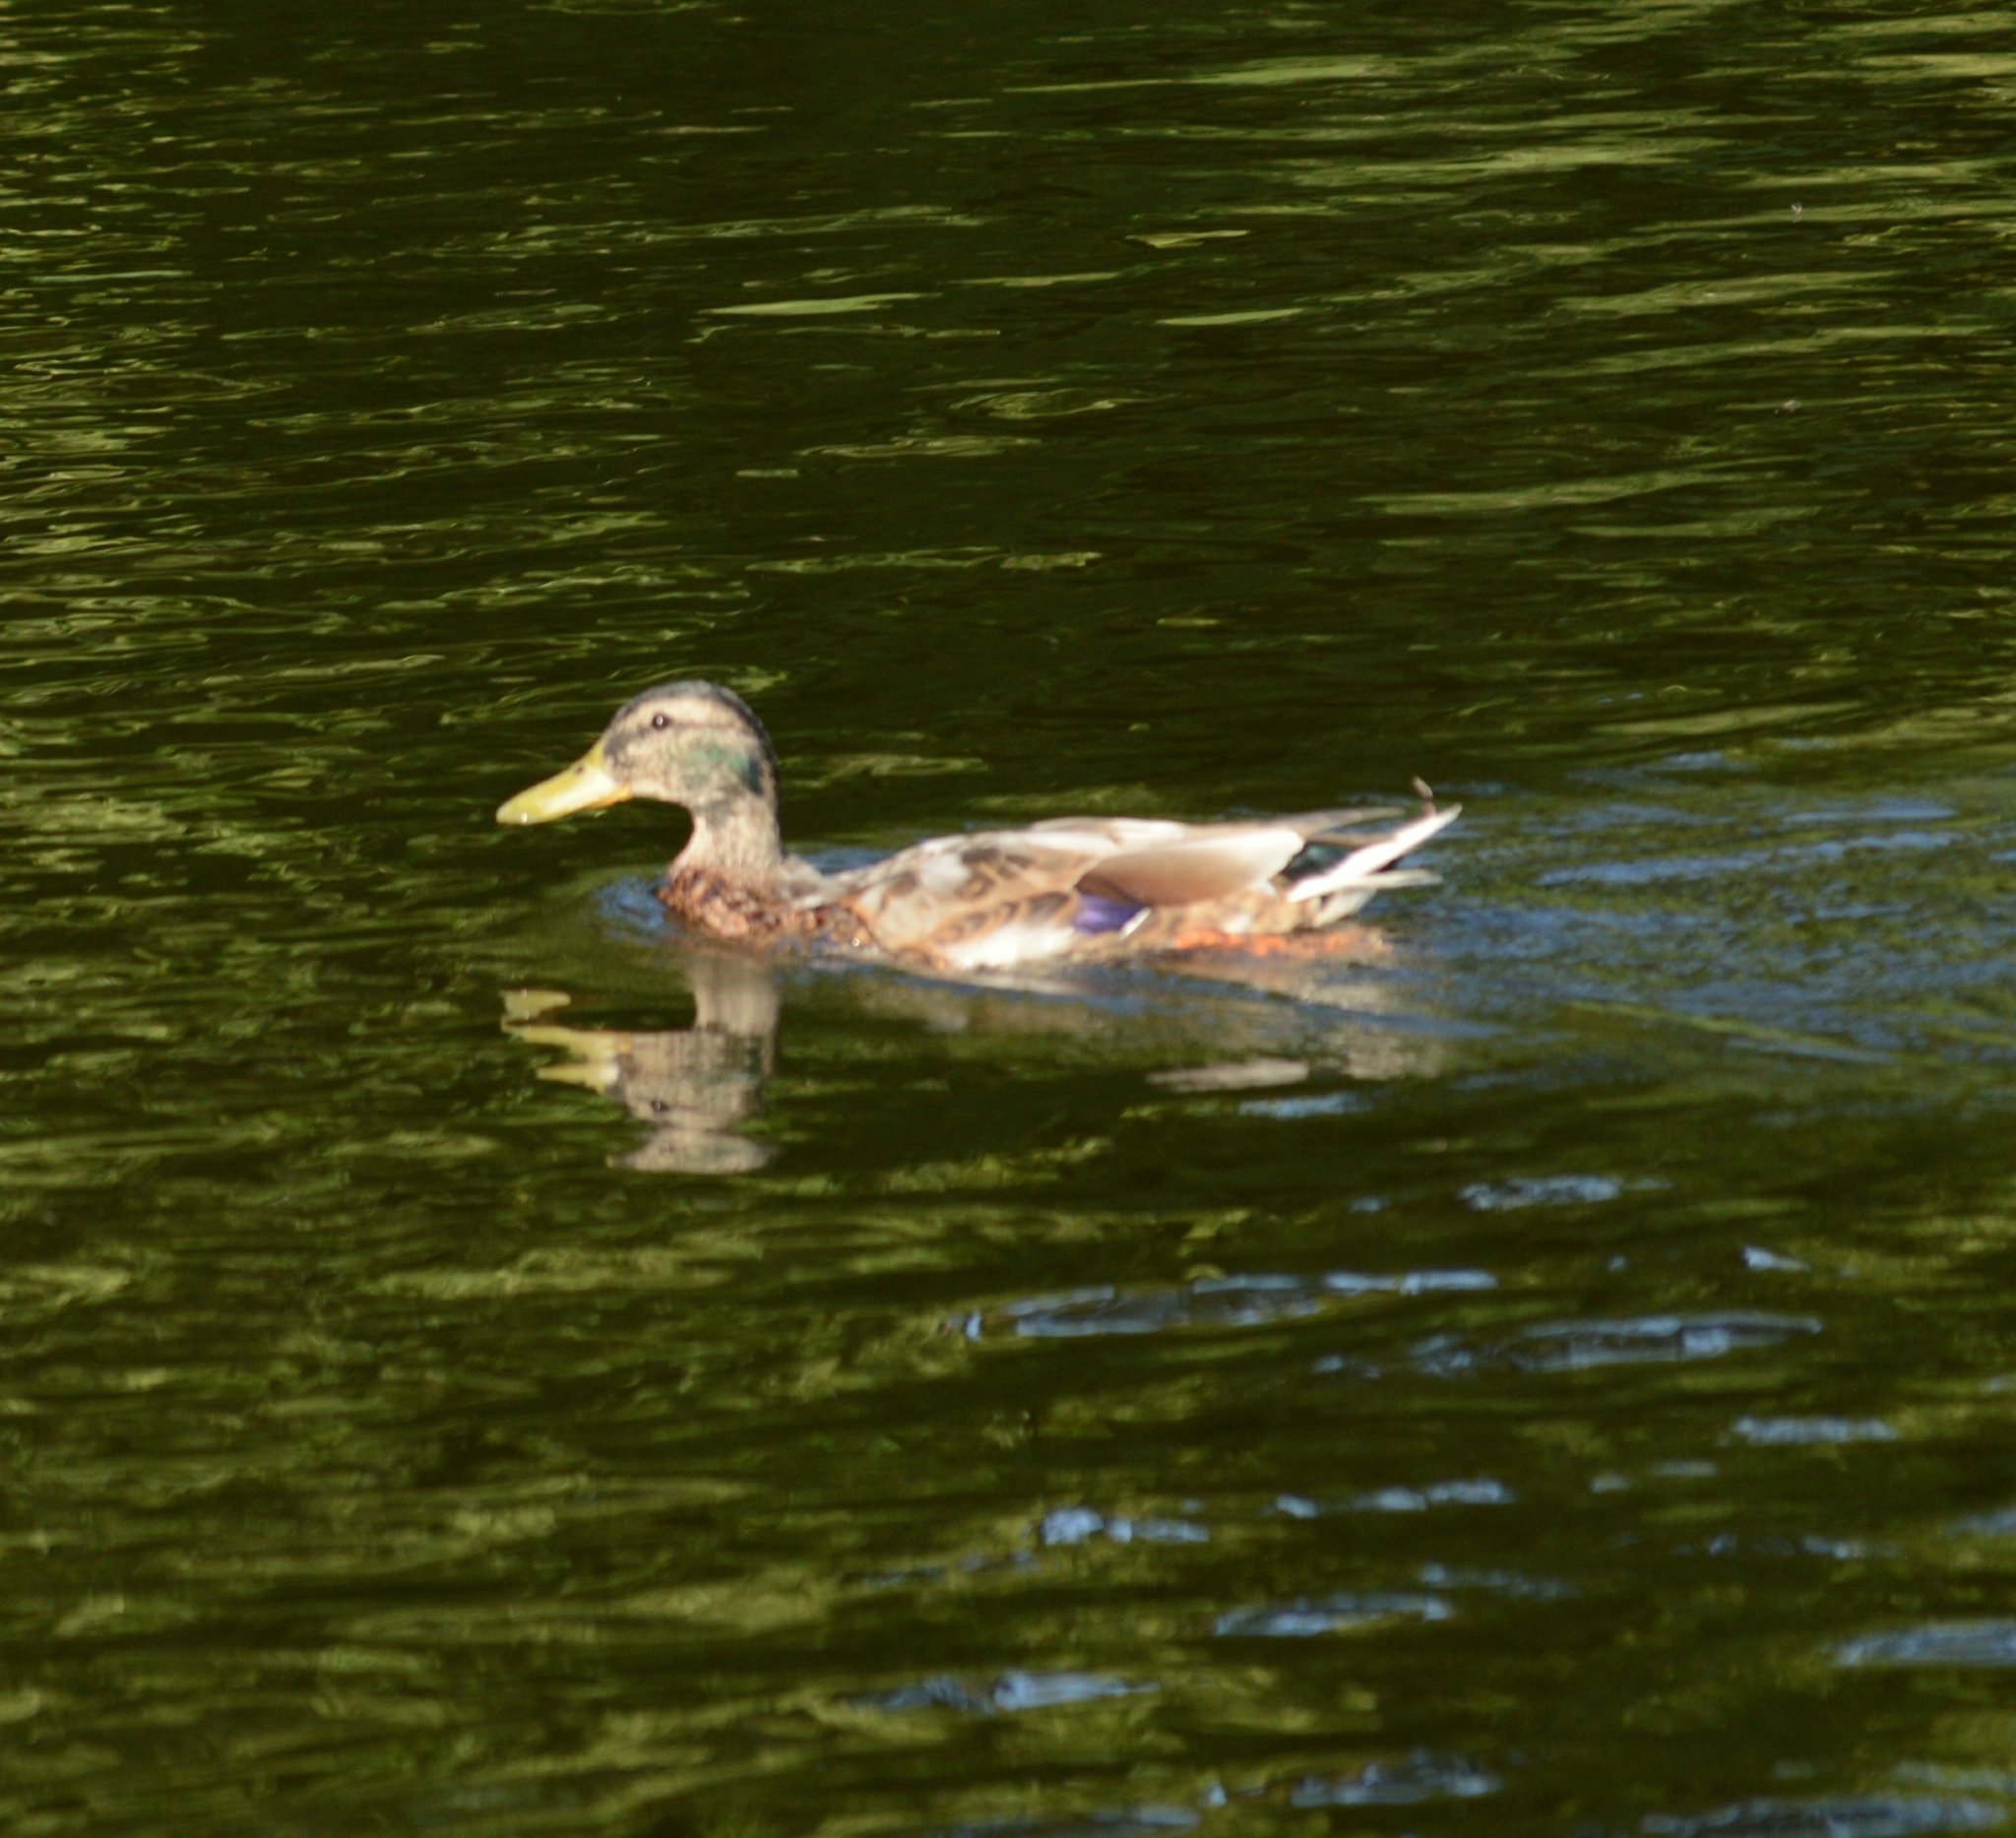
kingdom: Animalia
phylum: Chordata
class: Aves
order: Anseriformes
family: Anatidae
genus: Anas
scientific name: Anas platyrhynchos
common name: Mallard
